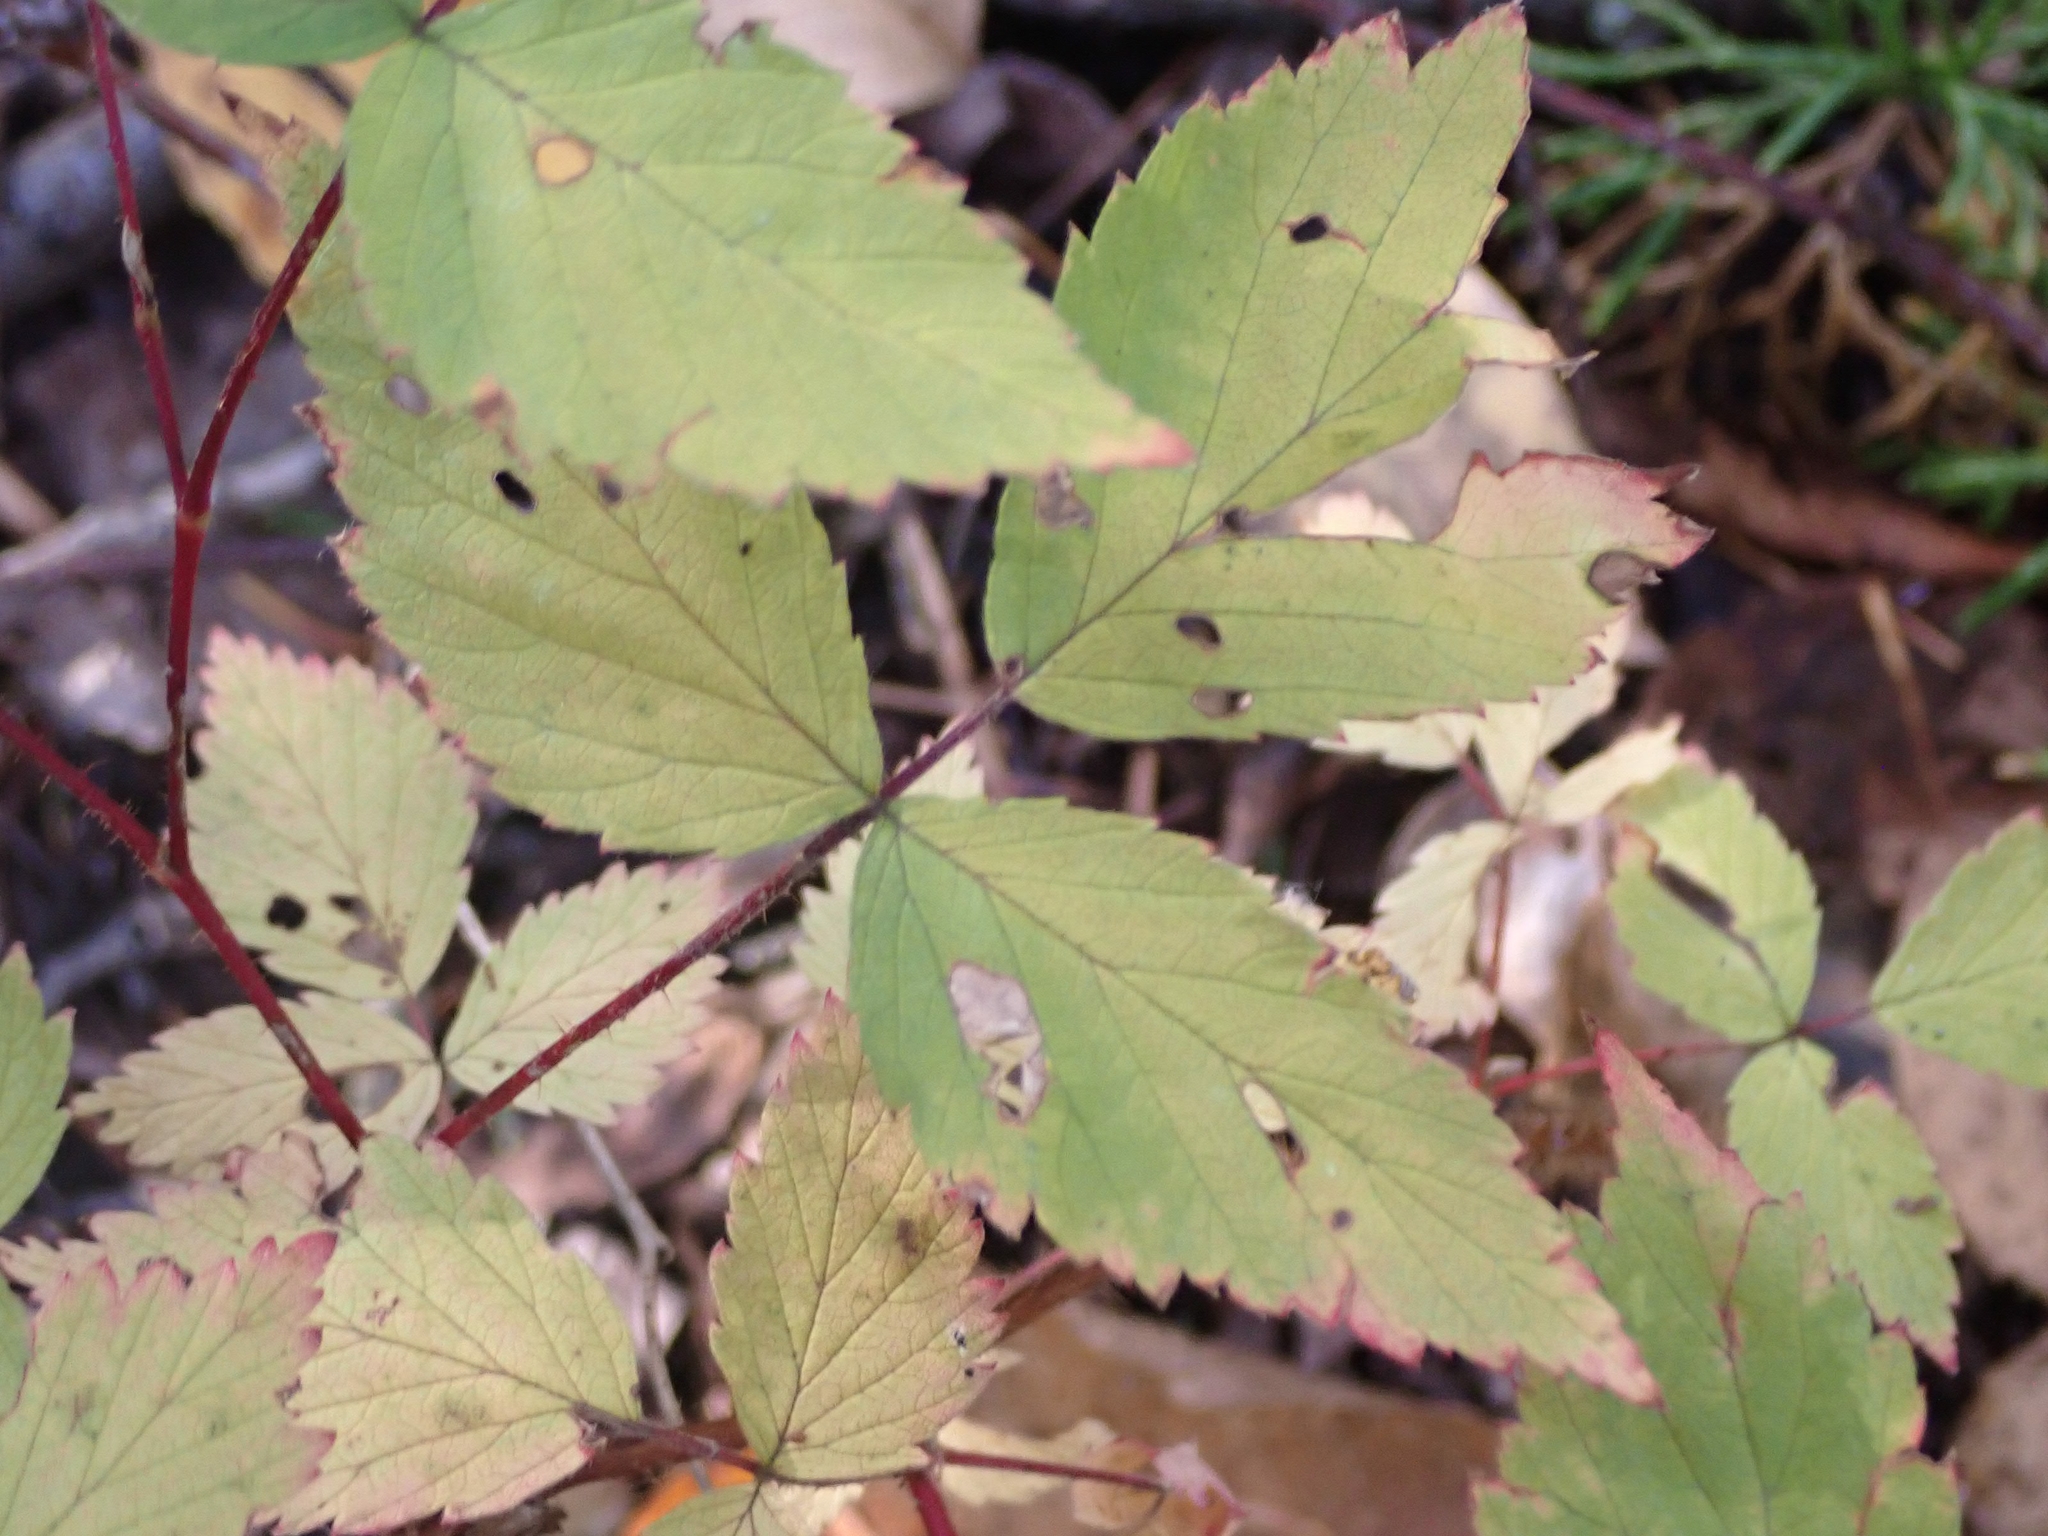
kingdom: Plantae
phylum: Tracheophyta
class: Magnoliopsida
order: Rosales
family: Rosaceae
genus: Rubus
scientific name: Rubus idaeus
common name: Raspberry
